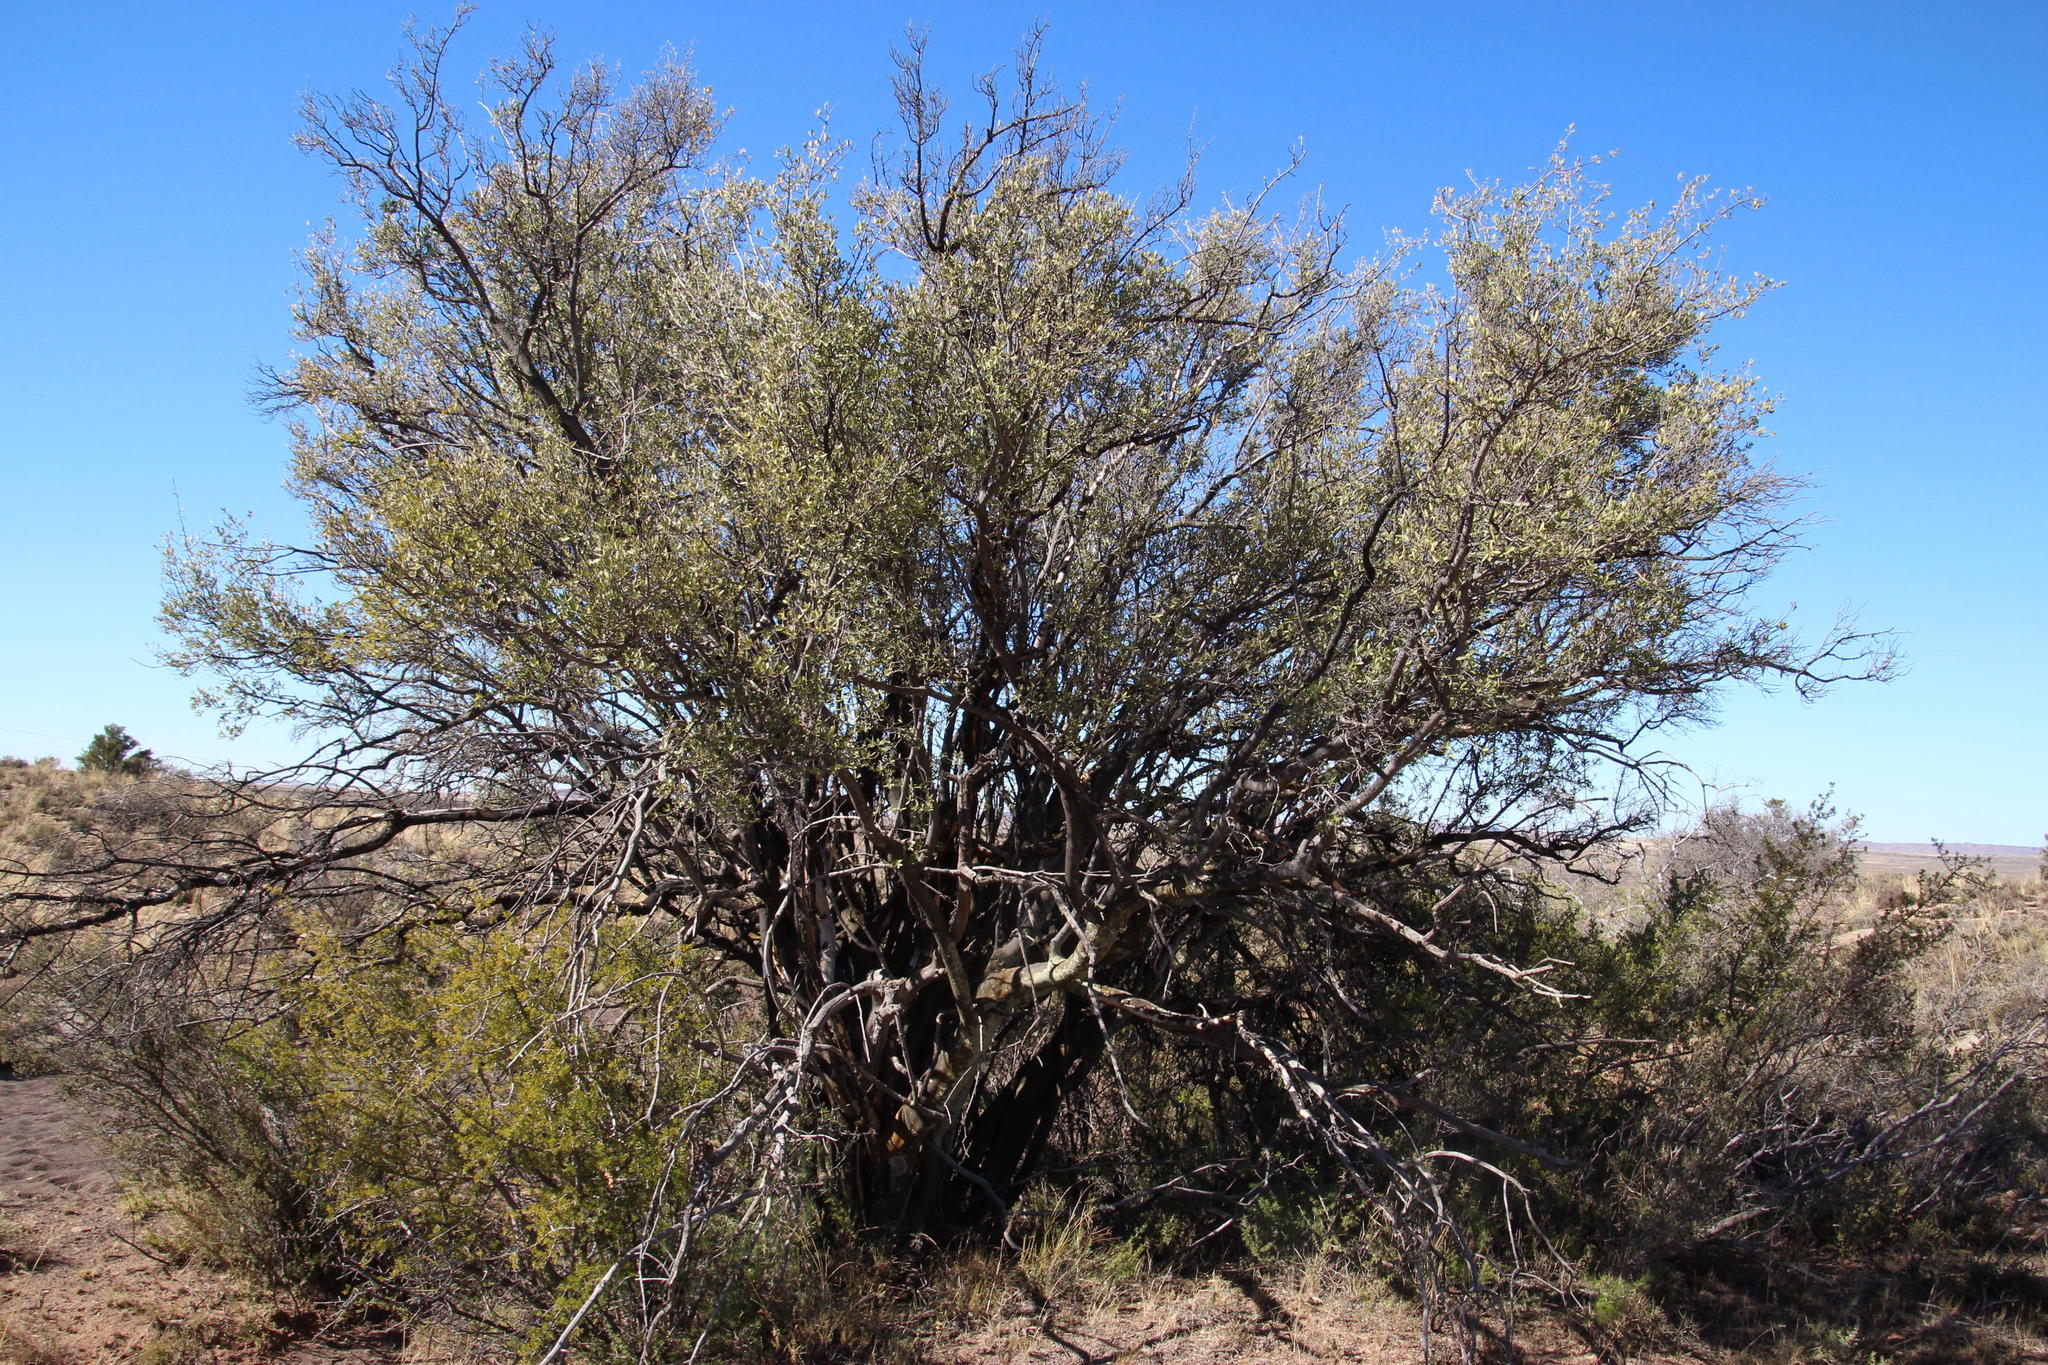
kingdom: Plantae
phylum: Tracheophyta
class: Magnoliopsida
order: Ericales
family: Ebenaceae
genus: Diospyros
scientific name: Diospyros pubescens
